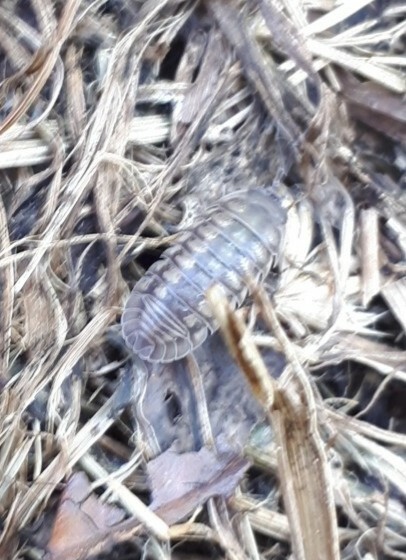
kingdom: Animalia
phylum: Arthropoda
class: Malacostraca
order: Isopoda
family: Armadillidiidae
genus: Armadillidium
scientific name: Armadillidium nasatum
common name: Isopod
